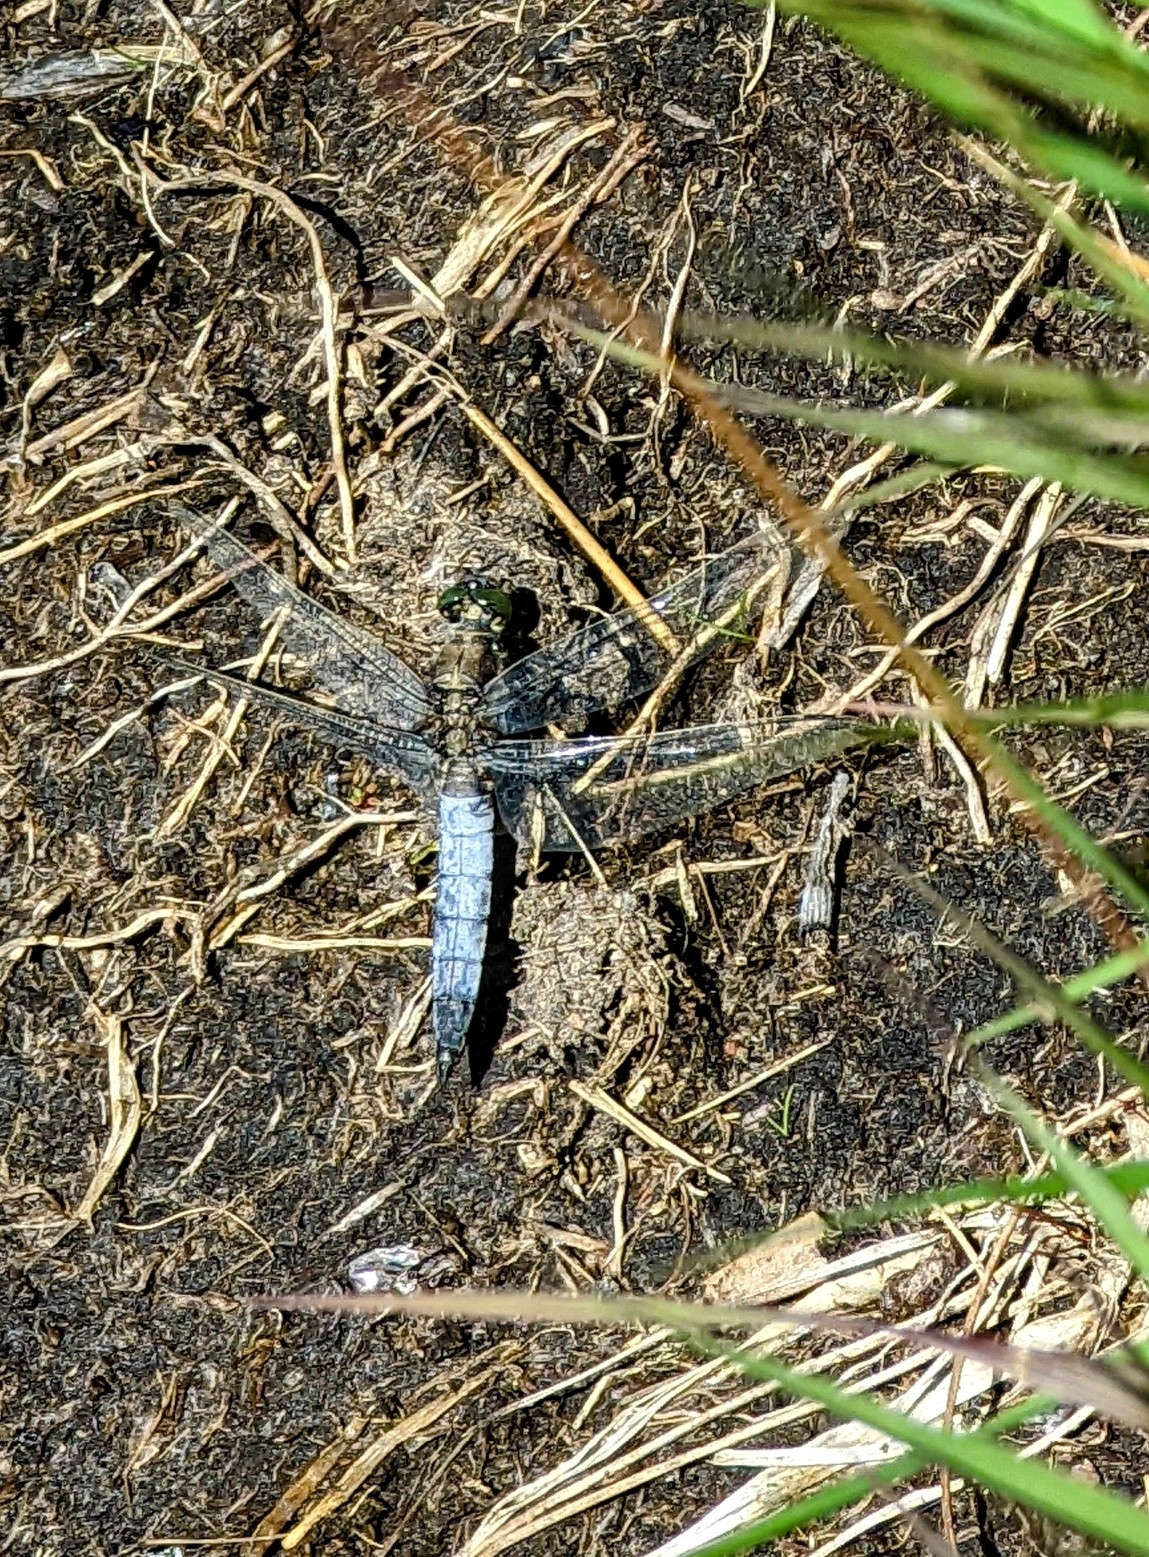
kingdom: Animalia
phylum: Arthropoda
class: Insecta
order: Odonata
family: Libellulidae
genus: Orthetrum
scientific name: Orthetrum cancellatum
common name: Black-tailed skimmer
